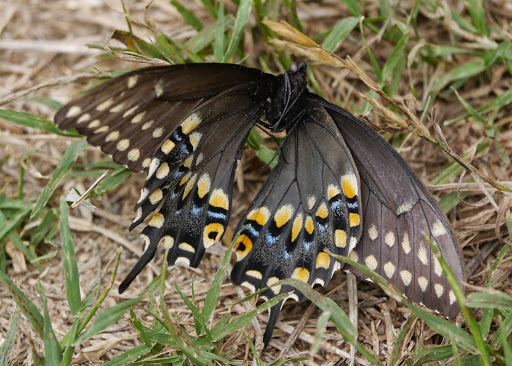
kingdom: Animalia
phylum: Arthropoda
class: Insecta
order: Lepidoptera
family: Papilionidae
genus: Papilio
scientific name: Papilio polyxenes
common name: Black swallowtail
